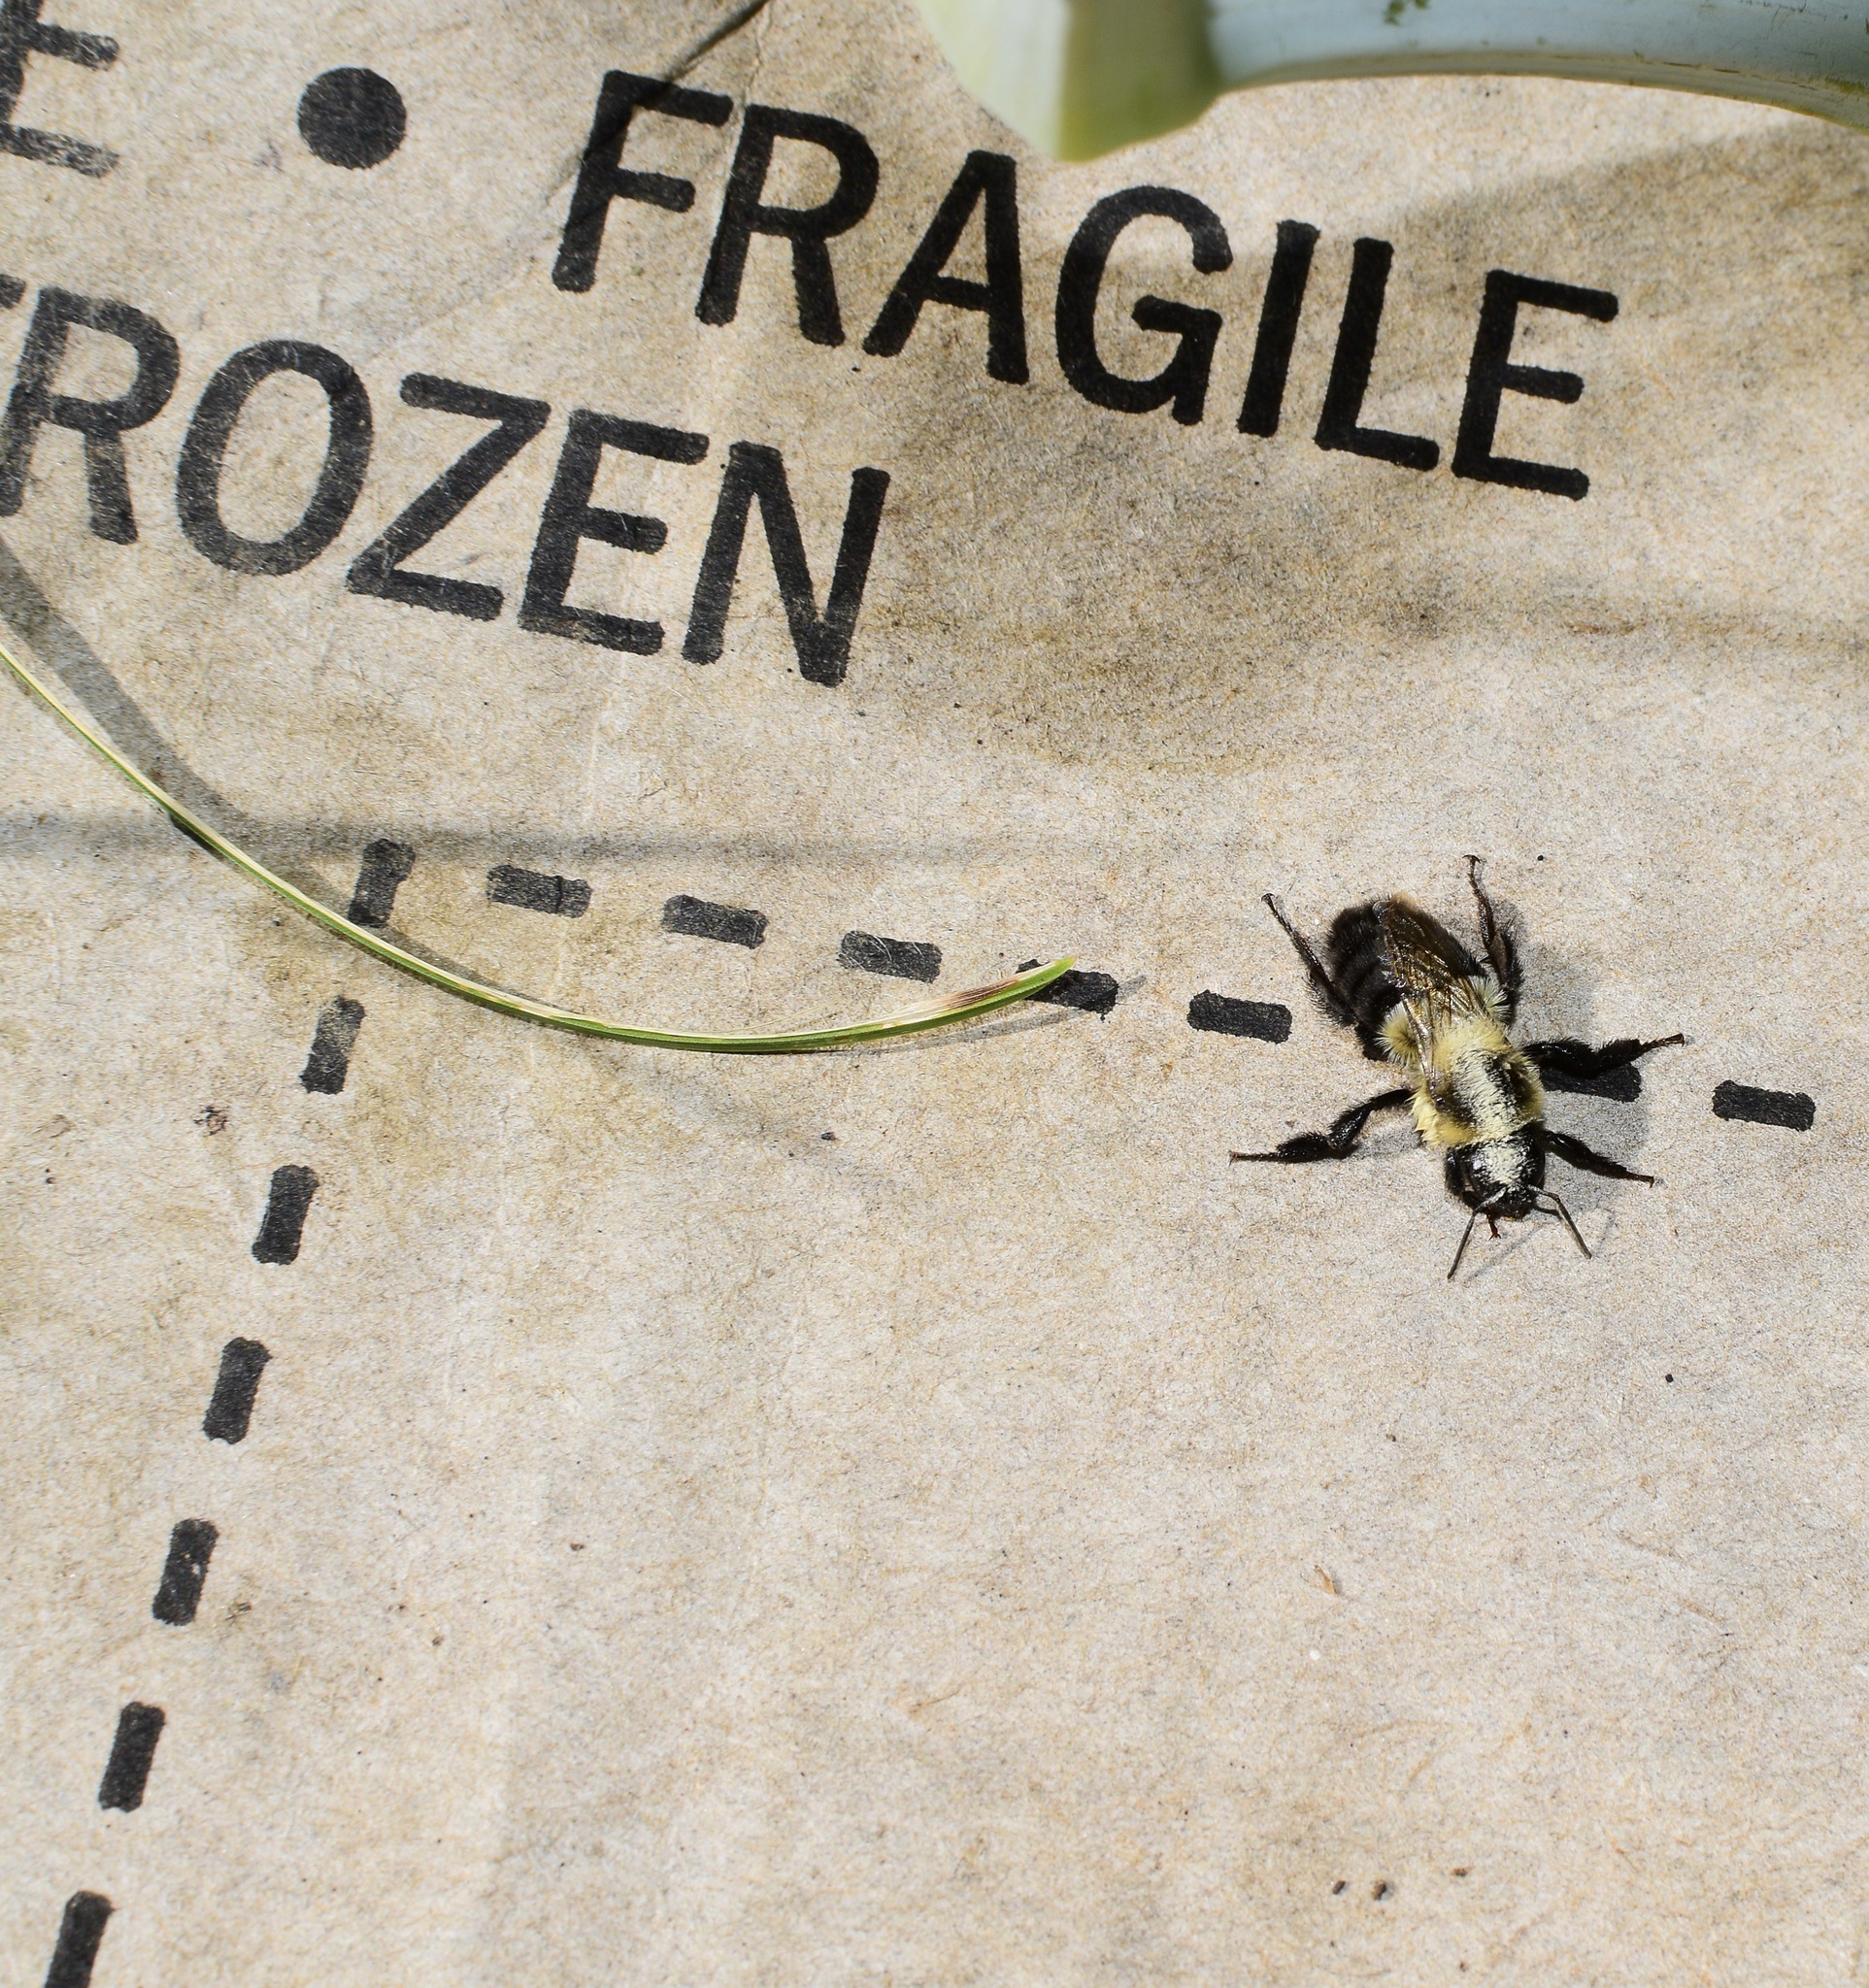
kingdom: Animalia
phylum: Arthropoda
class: Insecta
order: Hymenoptera
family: Apidae
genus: Bombus
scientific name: Bombus impatiens
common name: Common eastern bumble bee
